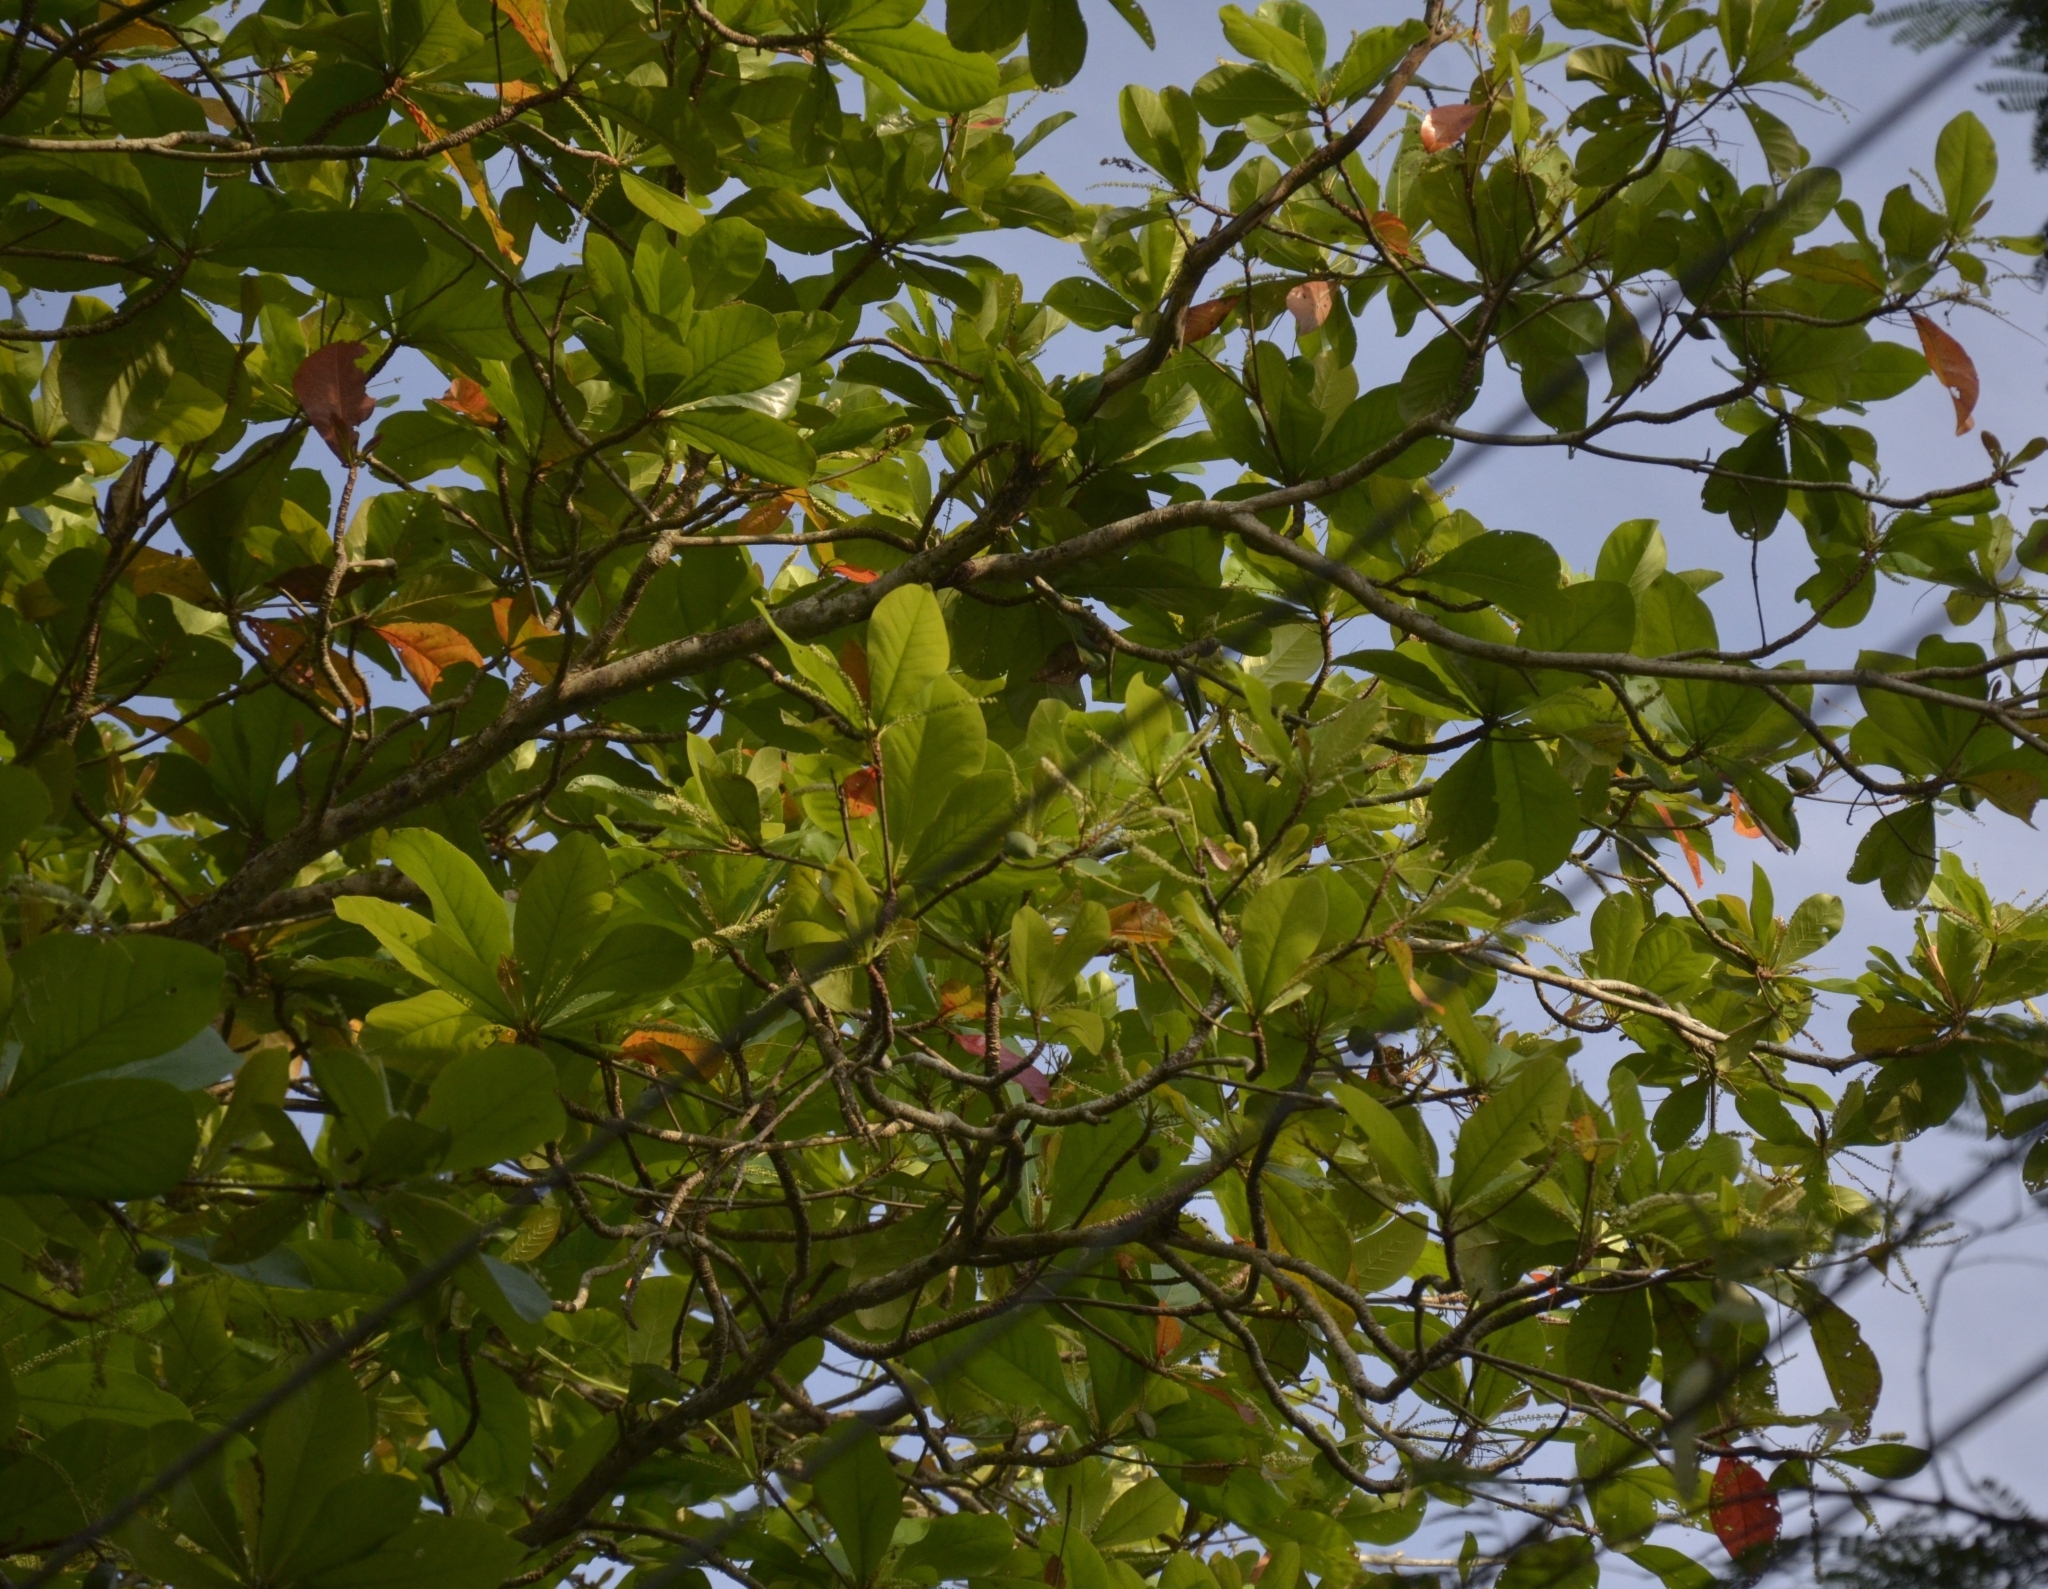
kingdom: Plantae
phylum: Tracheophyta
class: Magnoliopsida
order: Myrtales
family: Combretaceae
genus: Terminalia
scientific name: Terminalia catappa
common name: Tropical almond
